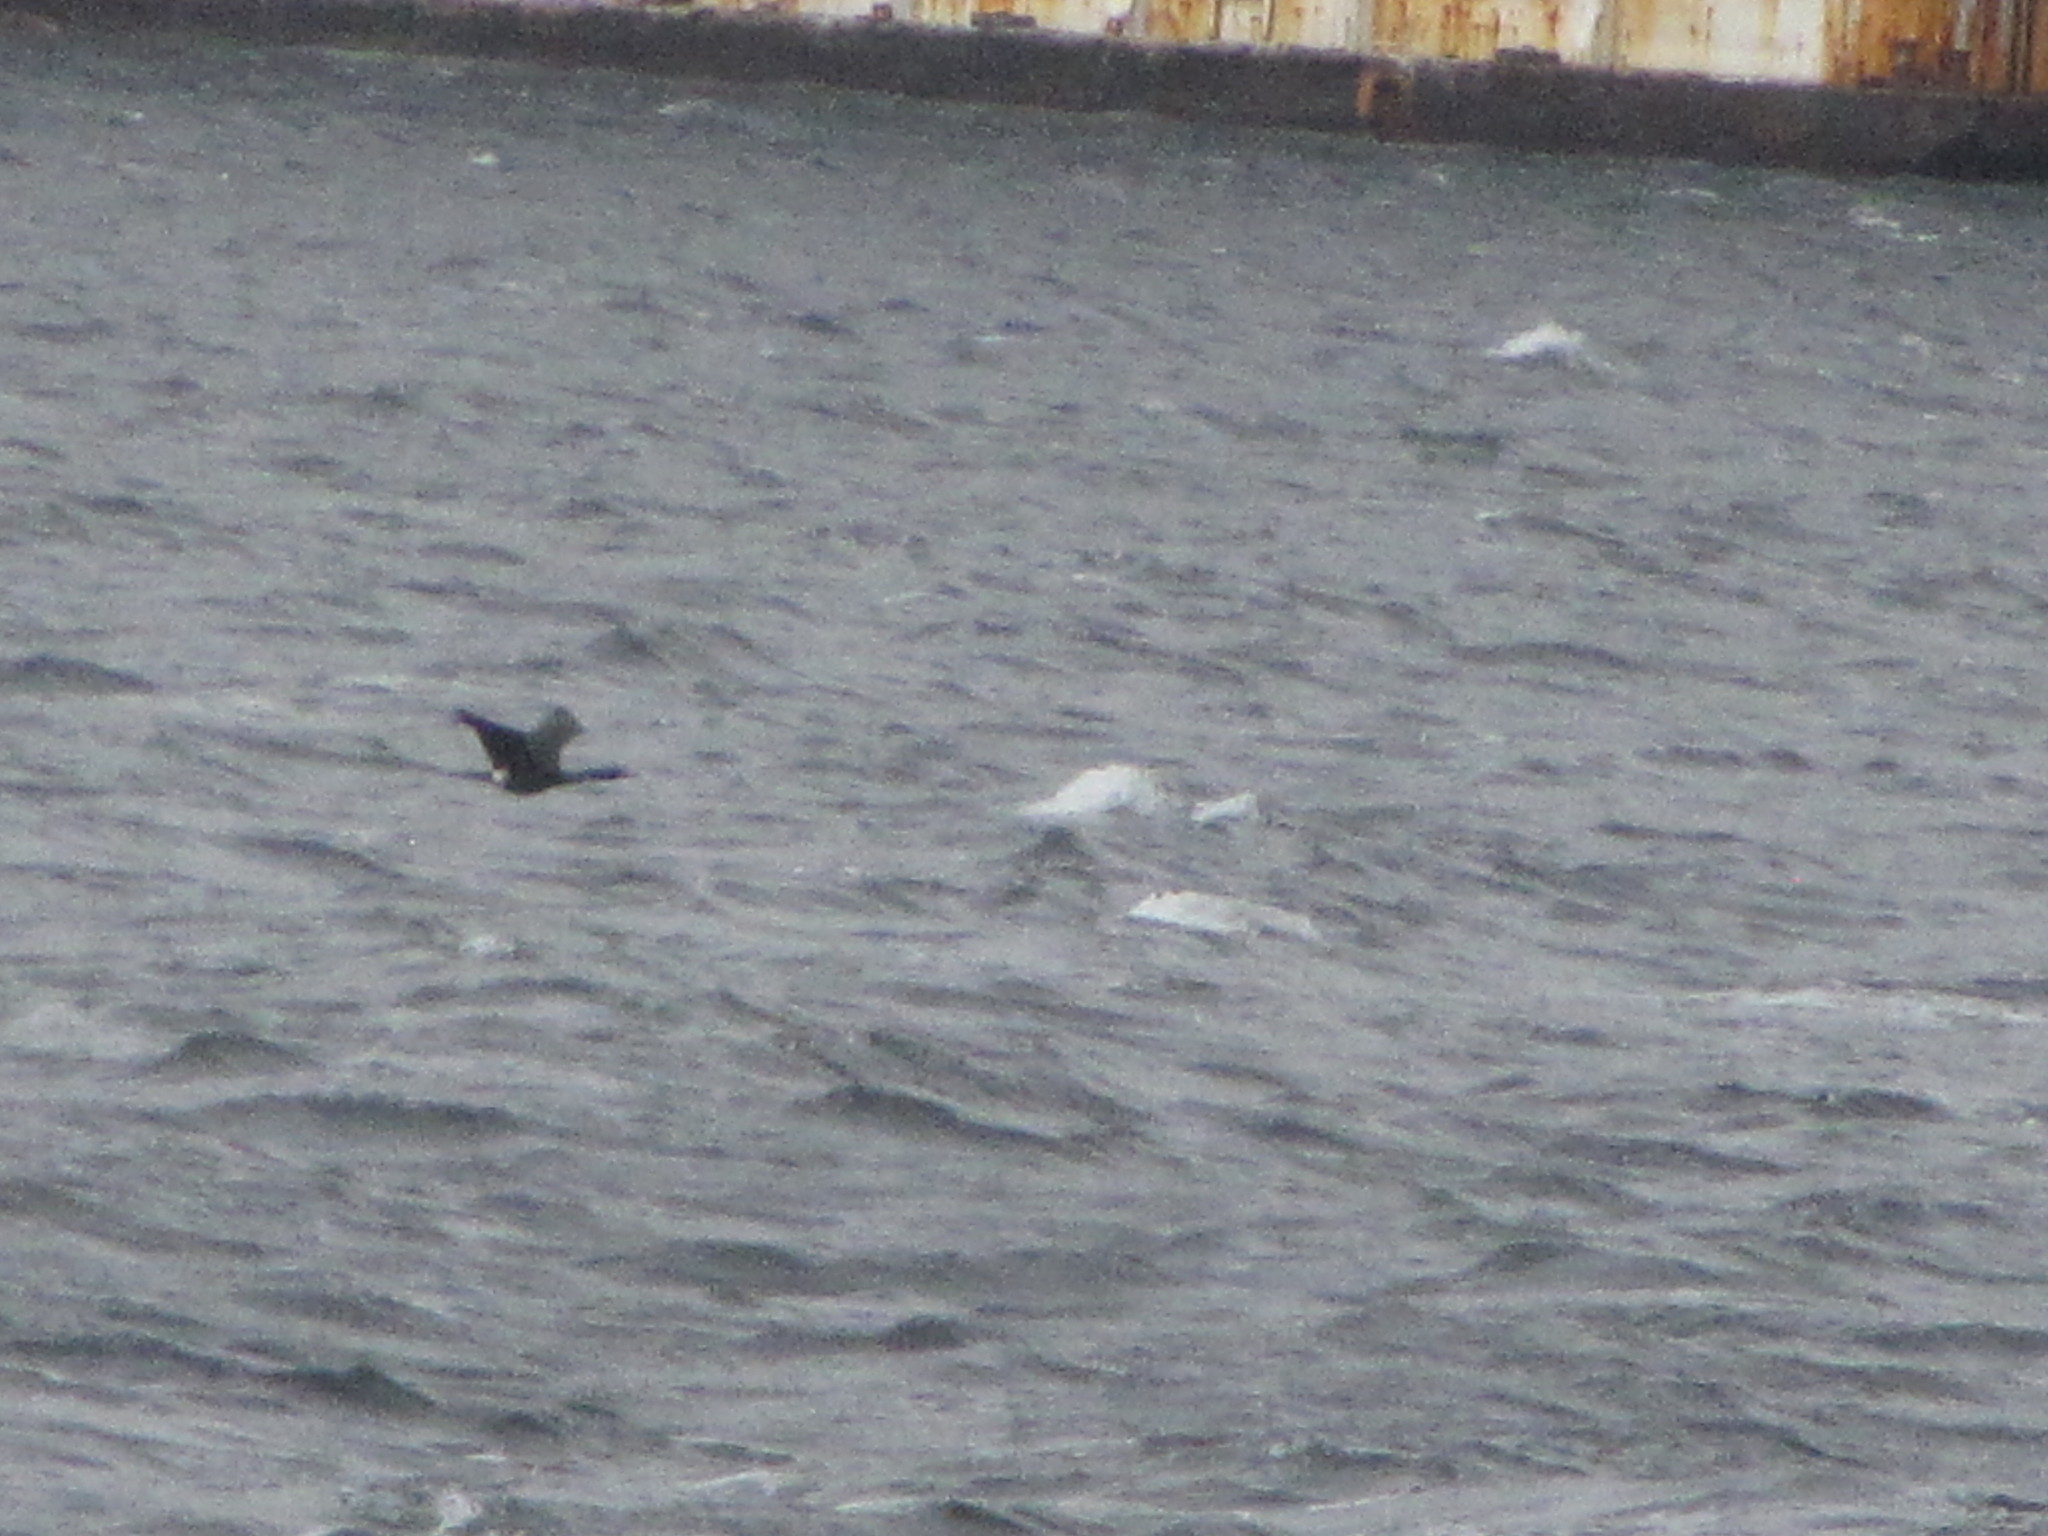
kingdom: Animalia
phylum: Chordata
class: Aves
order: Suliformes
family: Phalacrocoracidae
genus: Phalacrocorax
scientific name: Phalacrocorax pelagicus
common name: Pelagic cormorant
